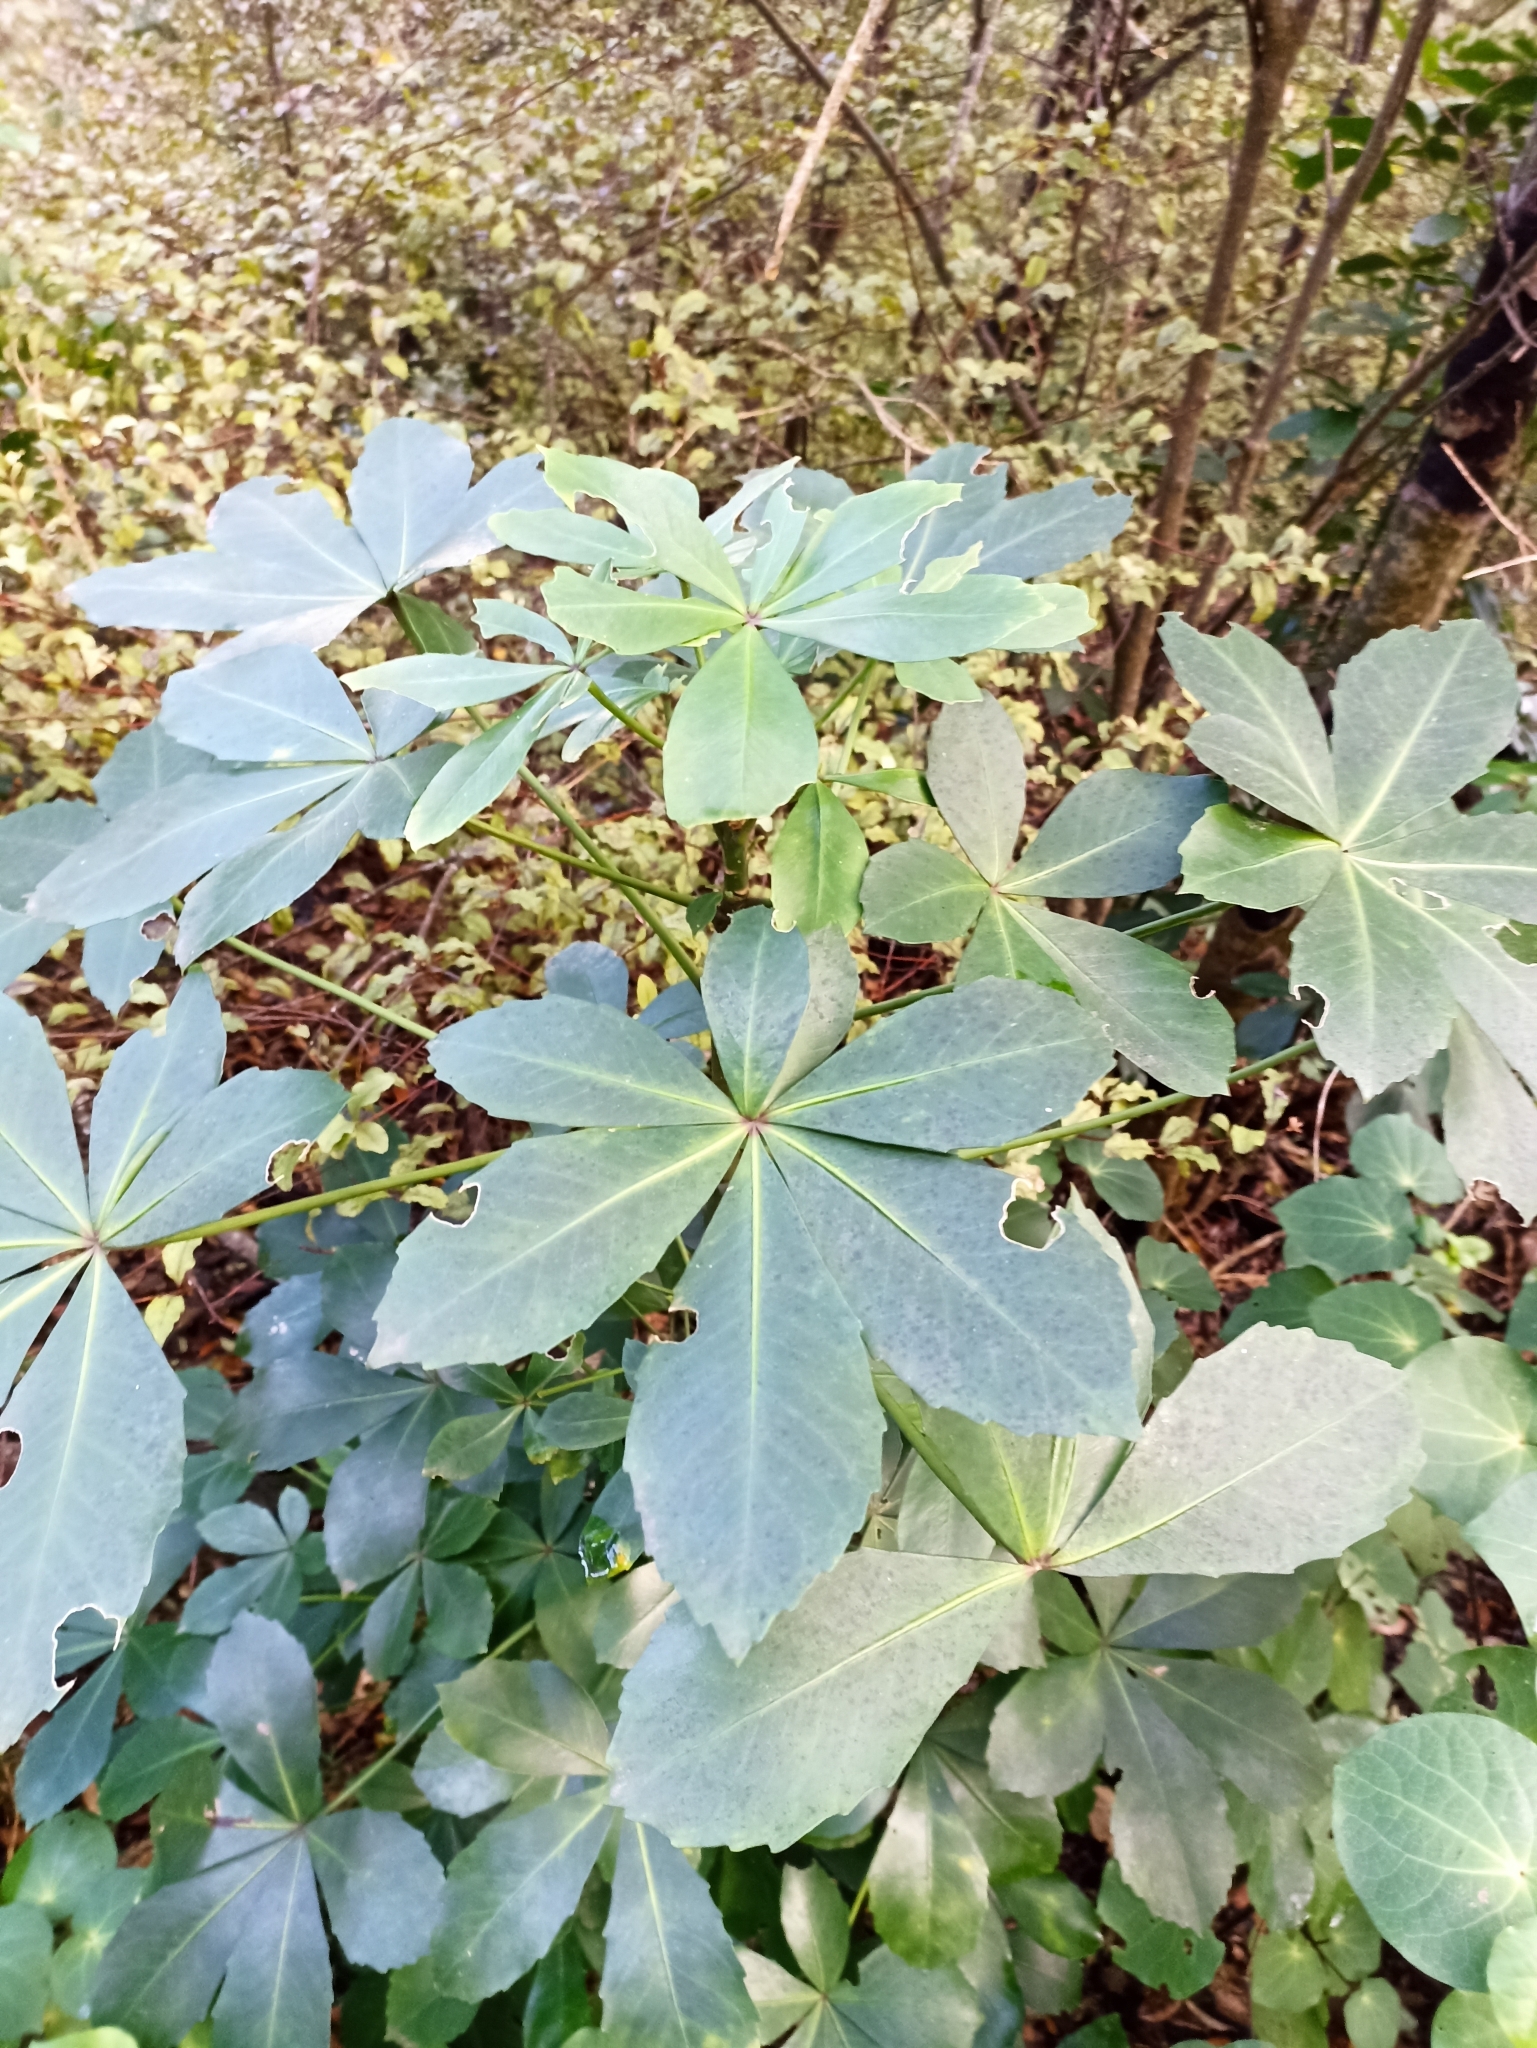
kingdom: Plantae
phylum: Tracheophyta
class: Magnoliopsida
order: Apiales
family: Araliaceae
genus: Pseudopanax
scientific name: Pseudopanax lessonii
